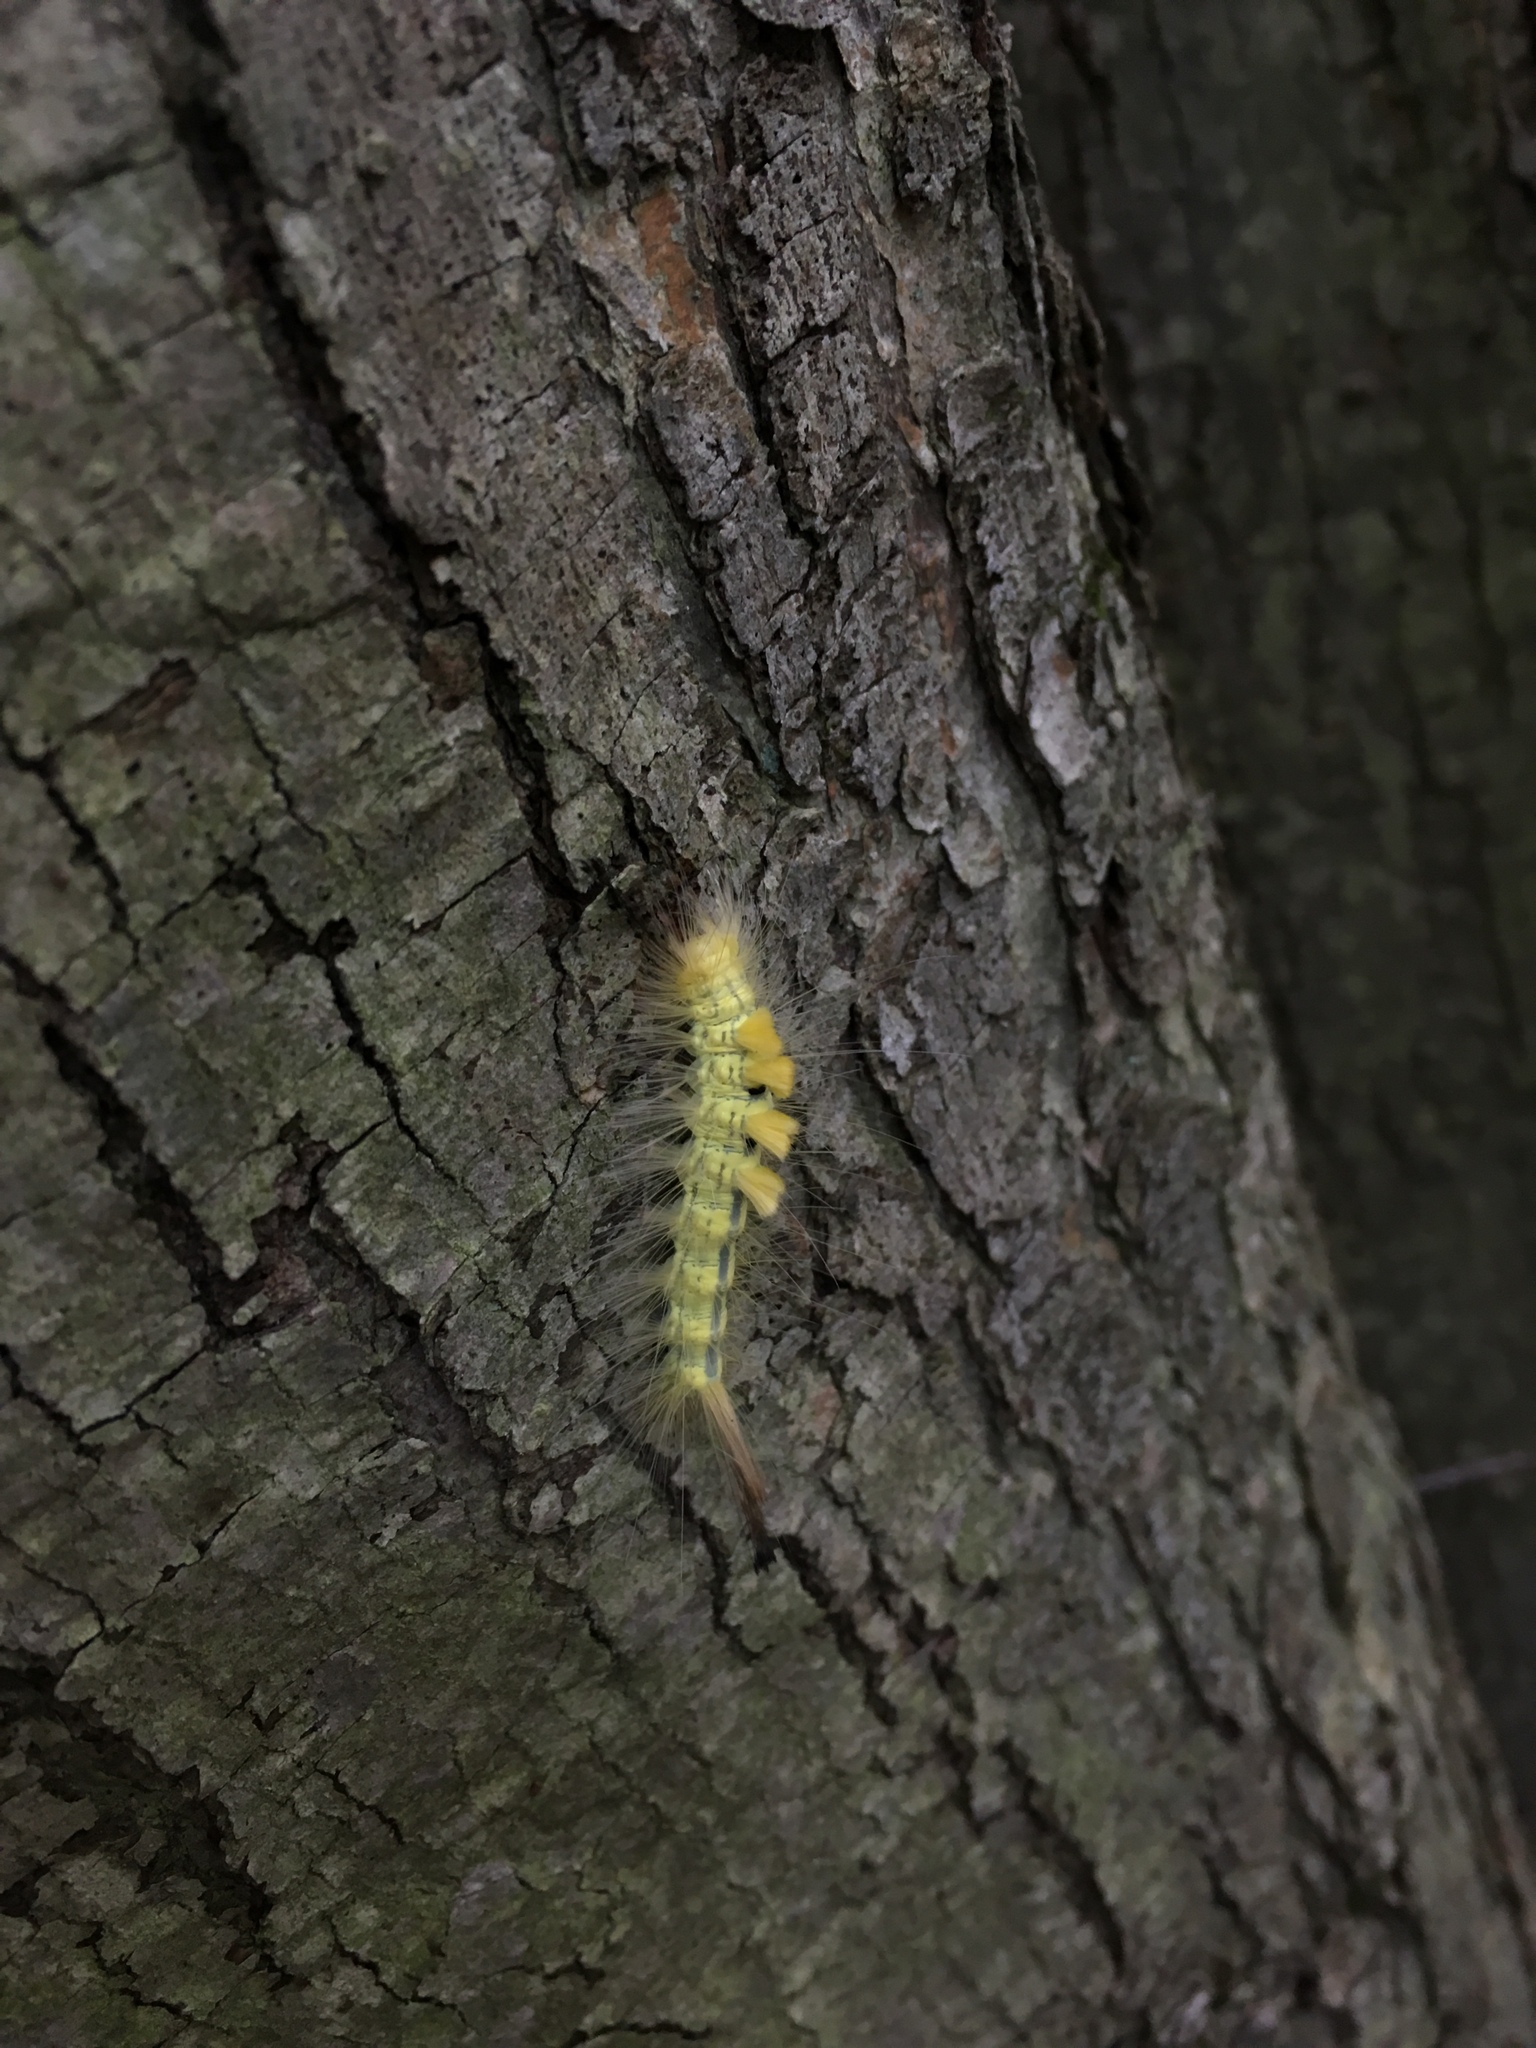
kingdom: Animalia
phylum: Arthropoda
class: Insecta
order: Lepidoptera
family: Erebidae
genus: Orgyia
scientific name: Orgyia definita
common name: Definite tussock moth
